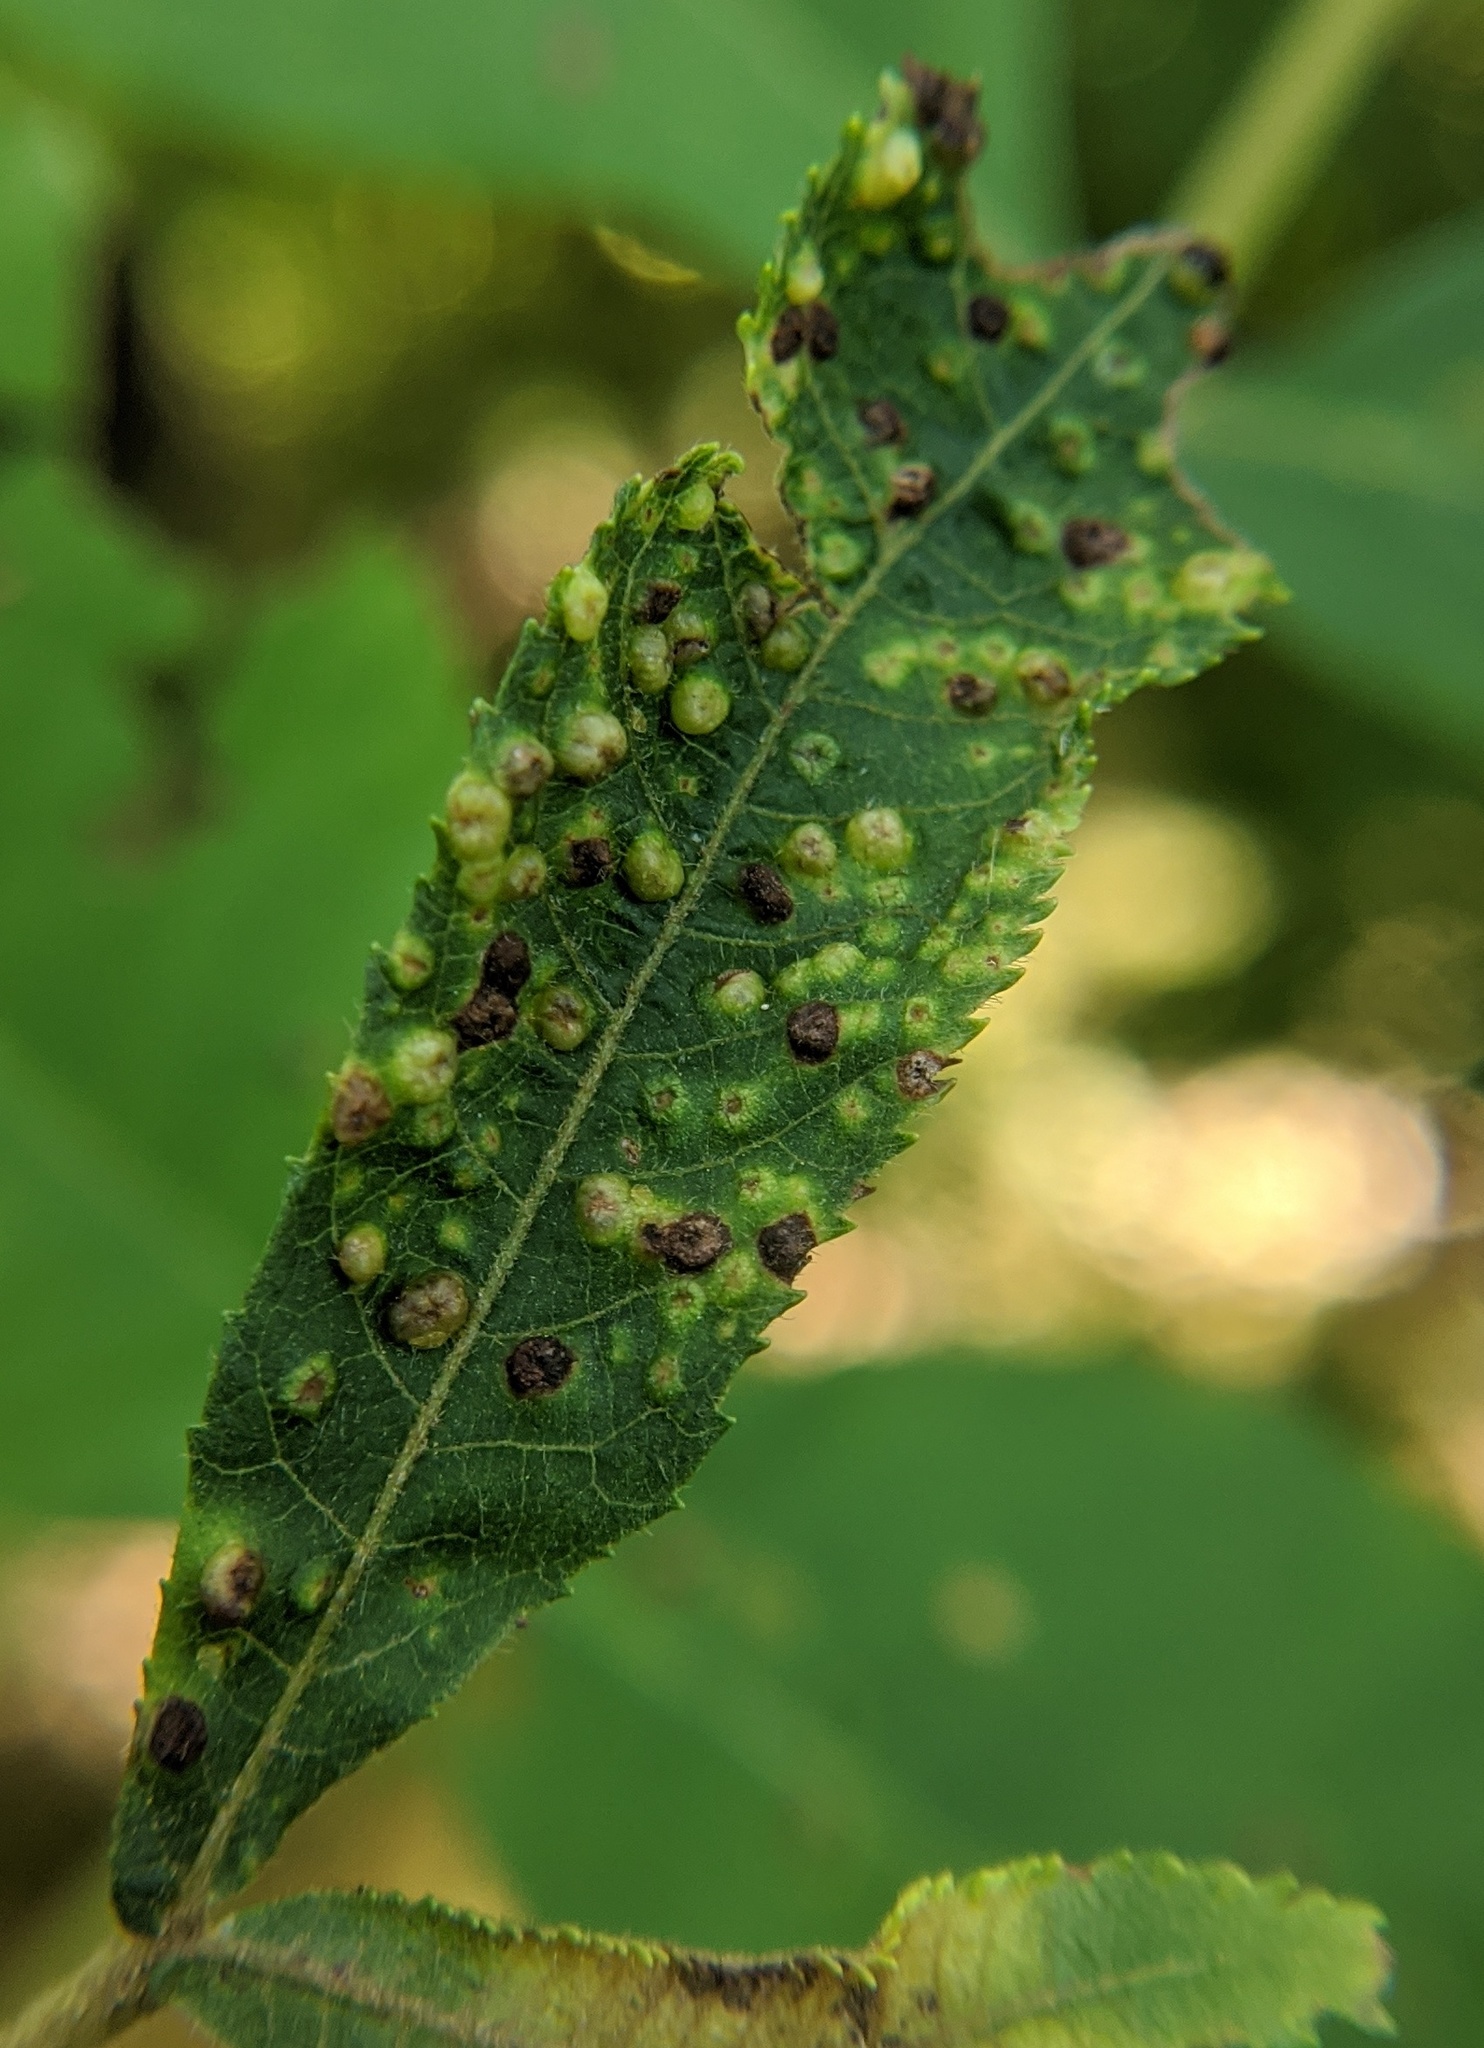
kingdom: Animalia
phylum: Arthropoda
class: Insecta
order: Hemiptera
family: Phylloxeridae
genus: Phylloxera
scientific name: Phylloxera caryae-semen
